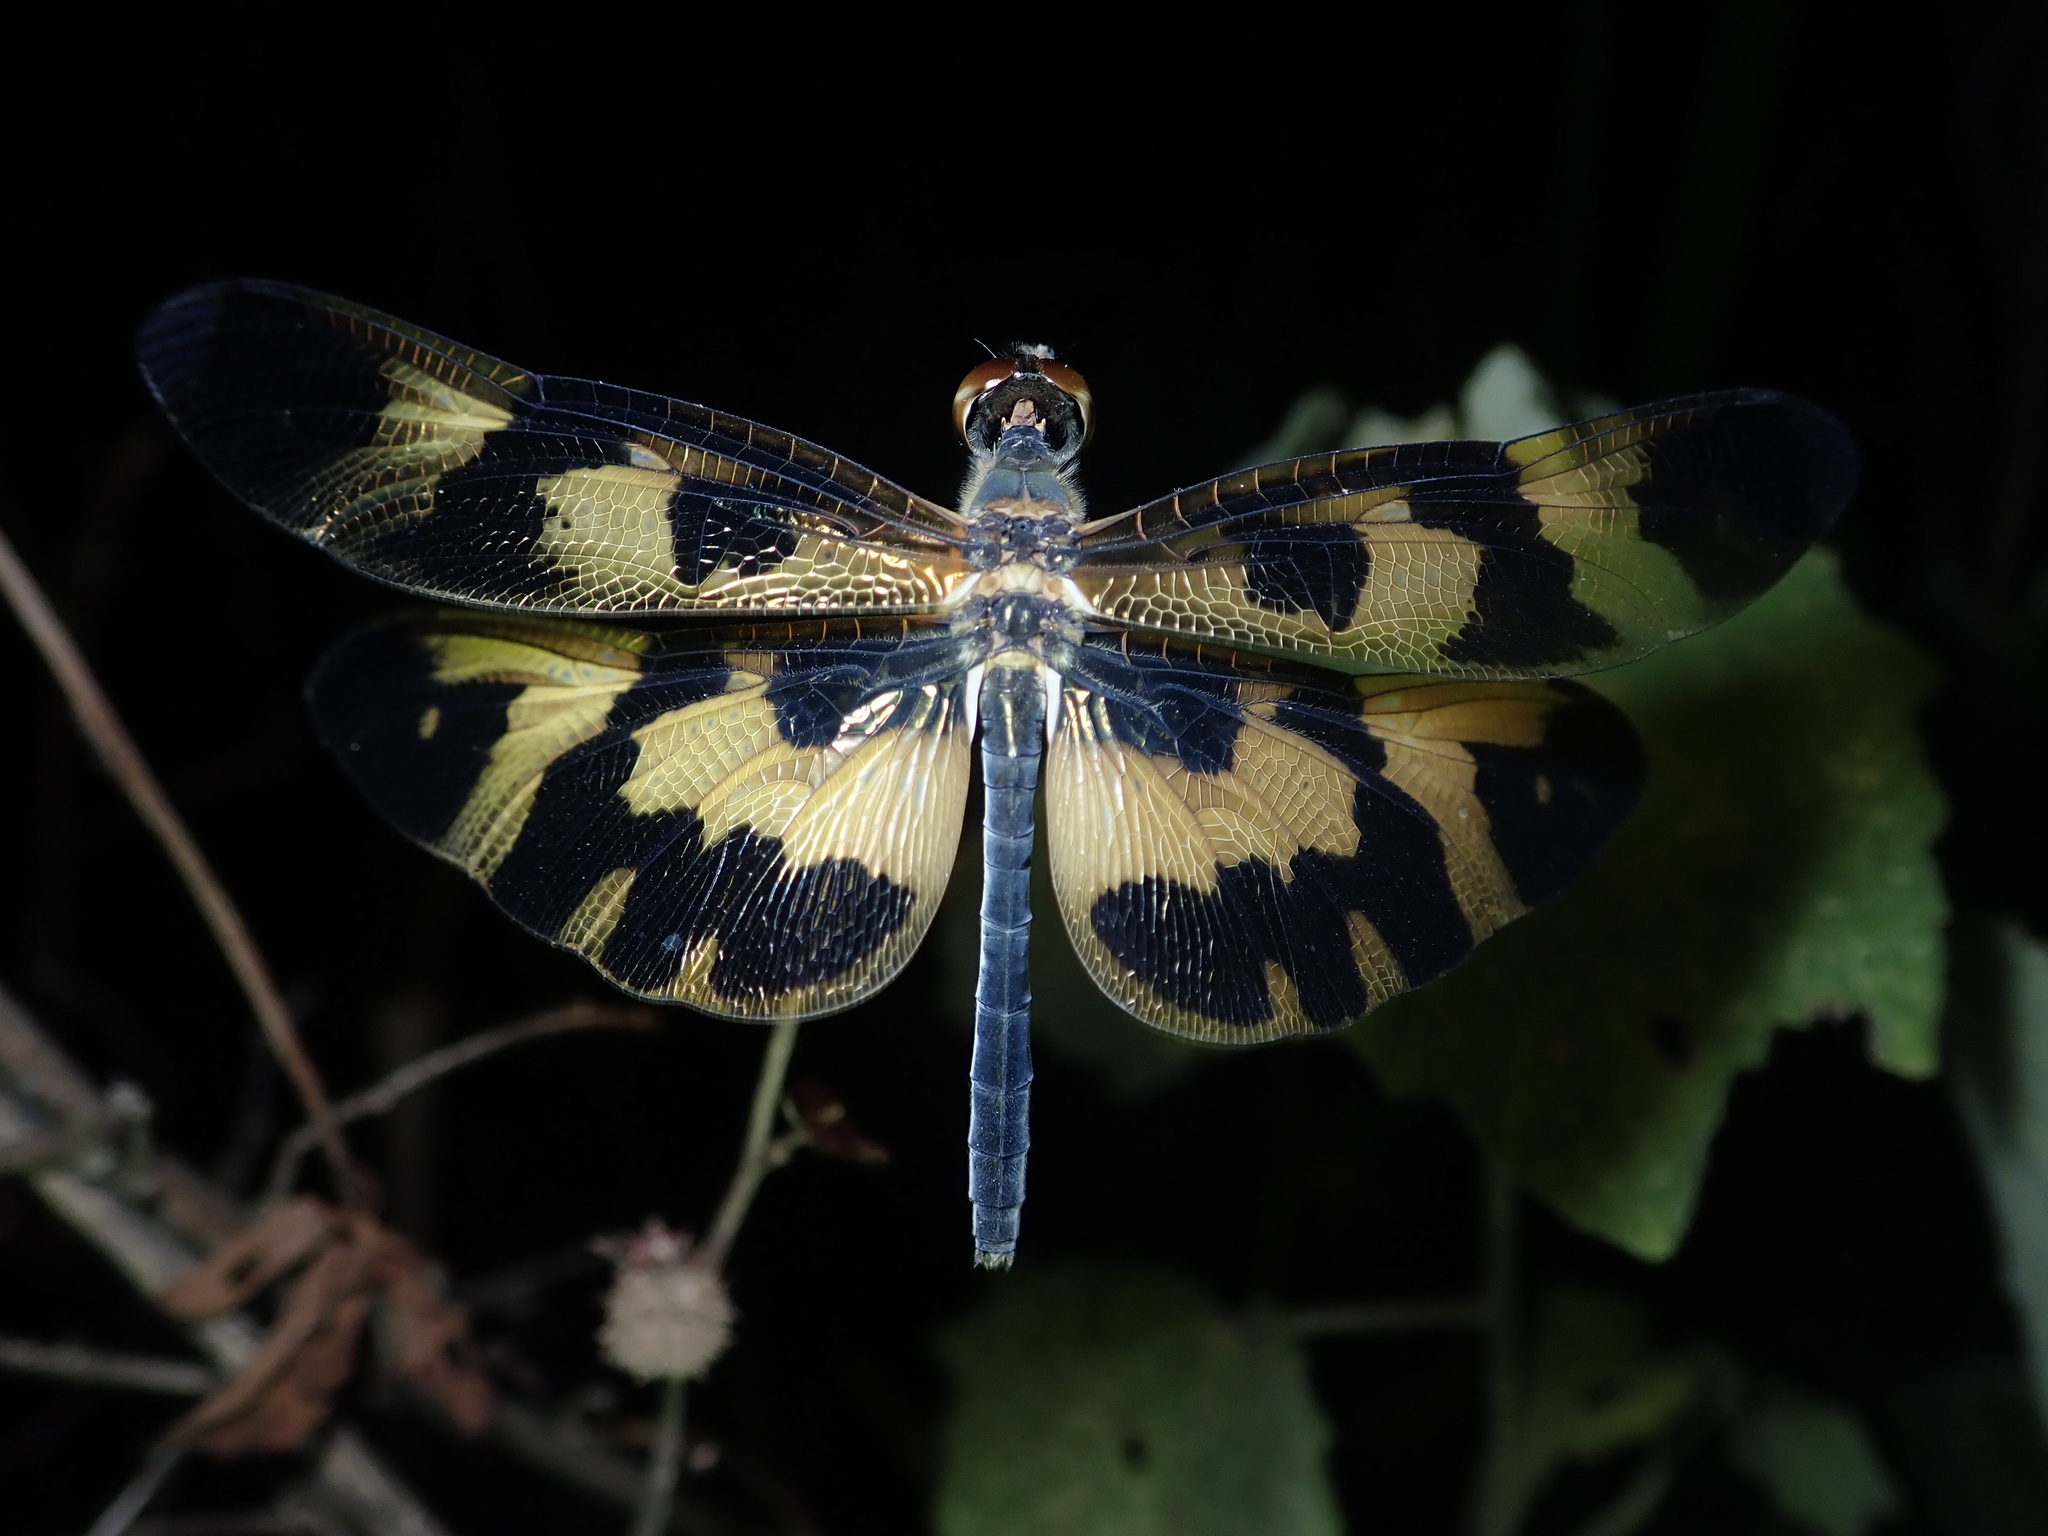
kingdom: Animalia
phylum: Arthropoda
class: Insecta
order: Odonata
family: Libellulidae
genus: Rhyothemis
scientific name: Rhyothemis variegata
